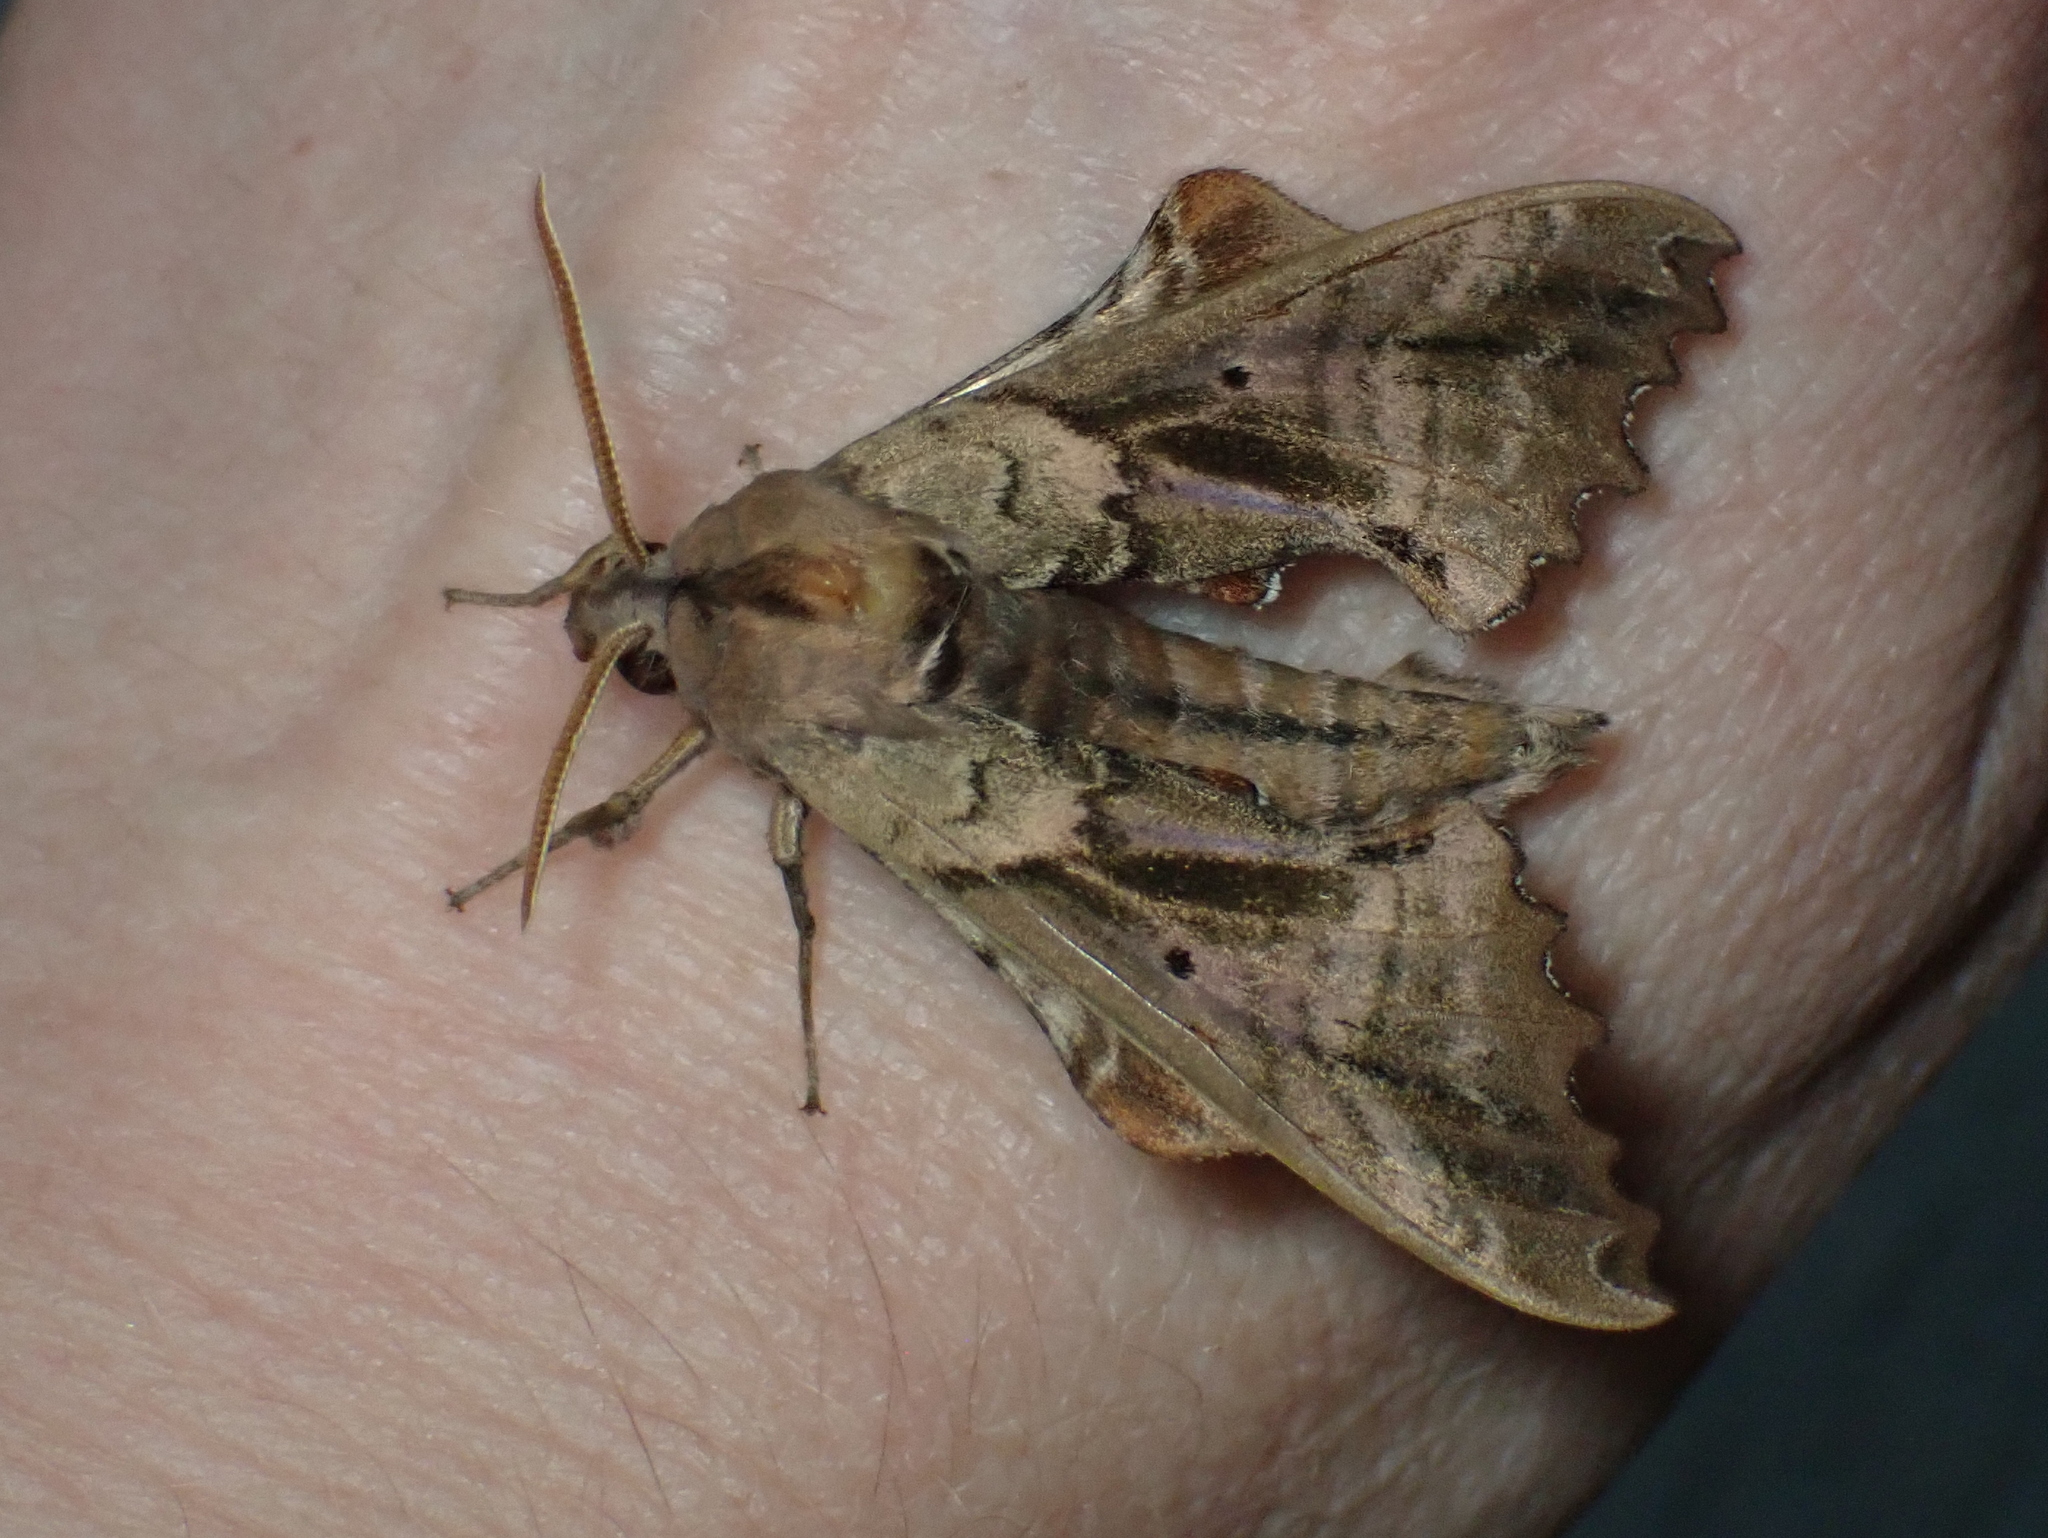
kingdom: Animalia
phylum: Arthropoda
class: Insecta
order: Lepidoptera
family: Sphingidae
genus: Paonias
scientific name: Paonias excaecata
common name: Blind-eyed sphinx
